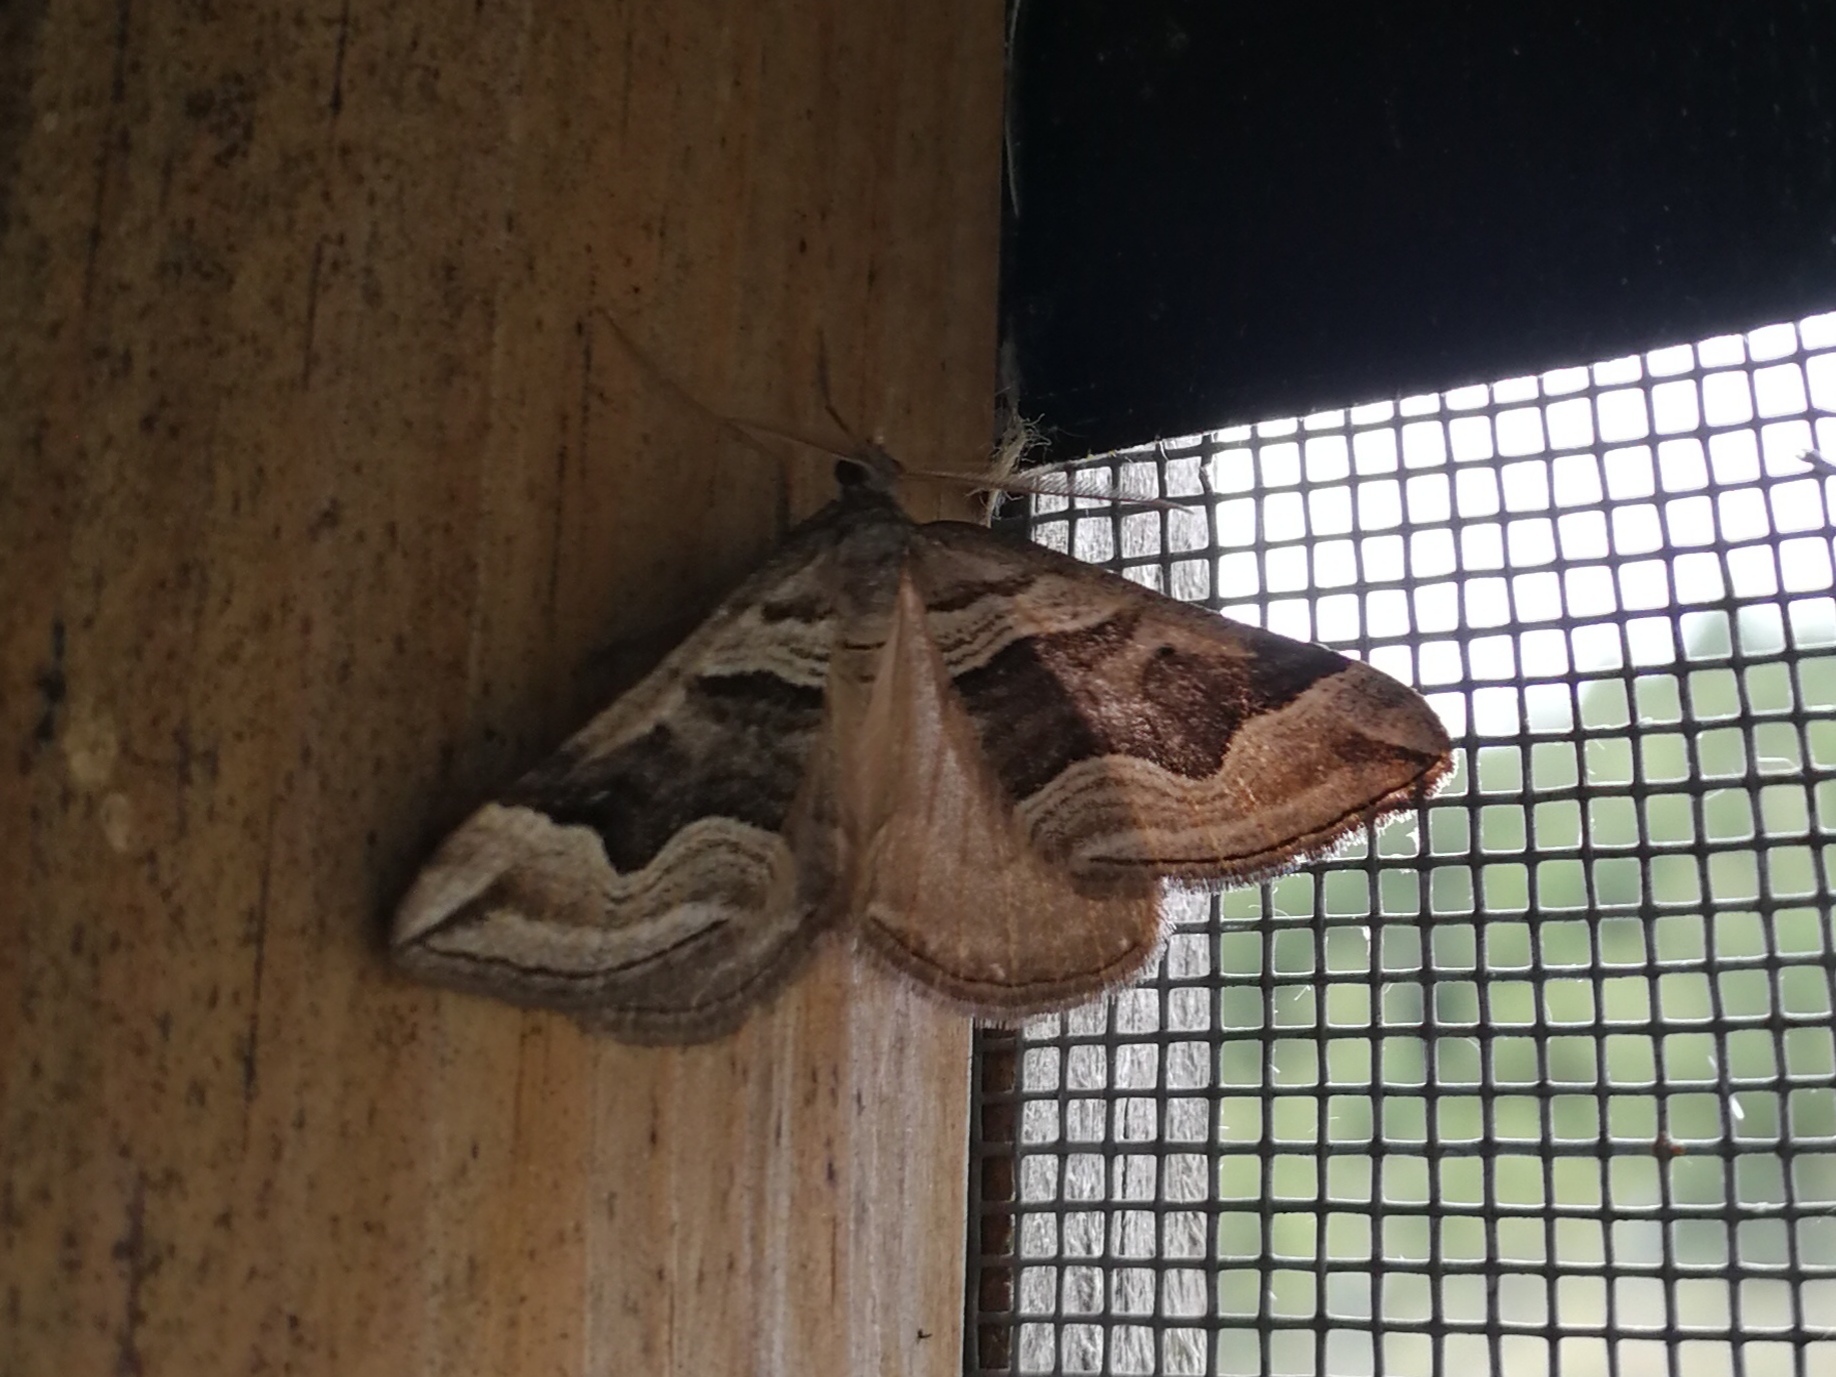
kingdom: Animalia
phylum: Arthropoda
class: Insecta
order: Lepidoptera
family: Geometridae
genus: Scotopteryx
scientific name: Scotopteryx peribolata
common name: Spanish carpet
